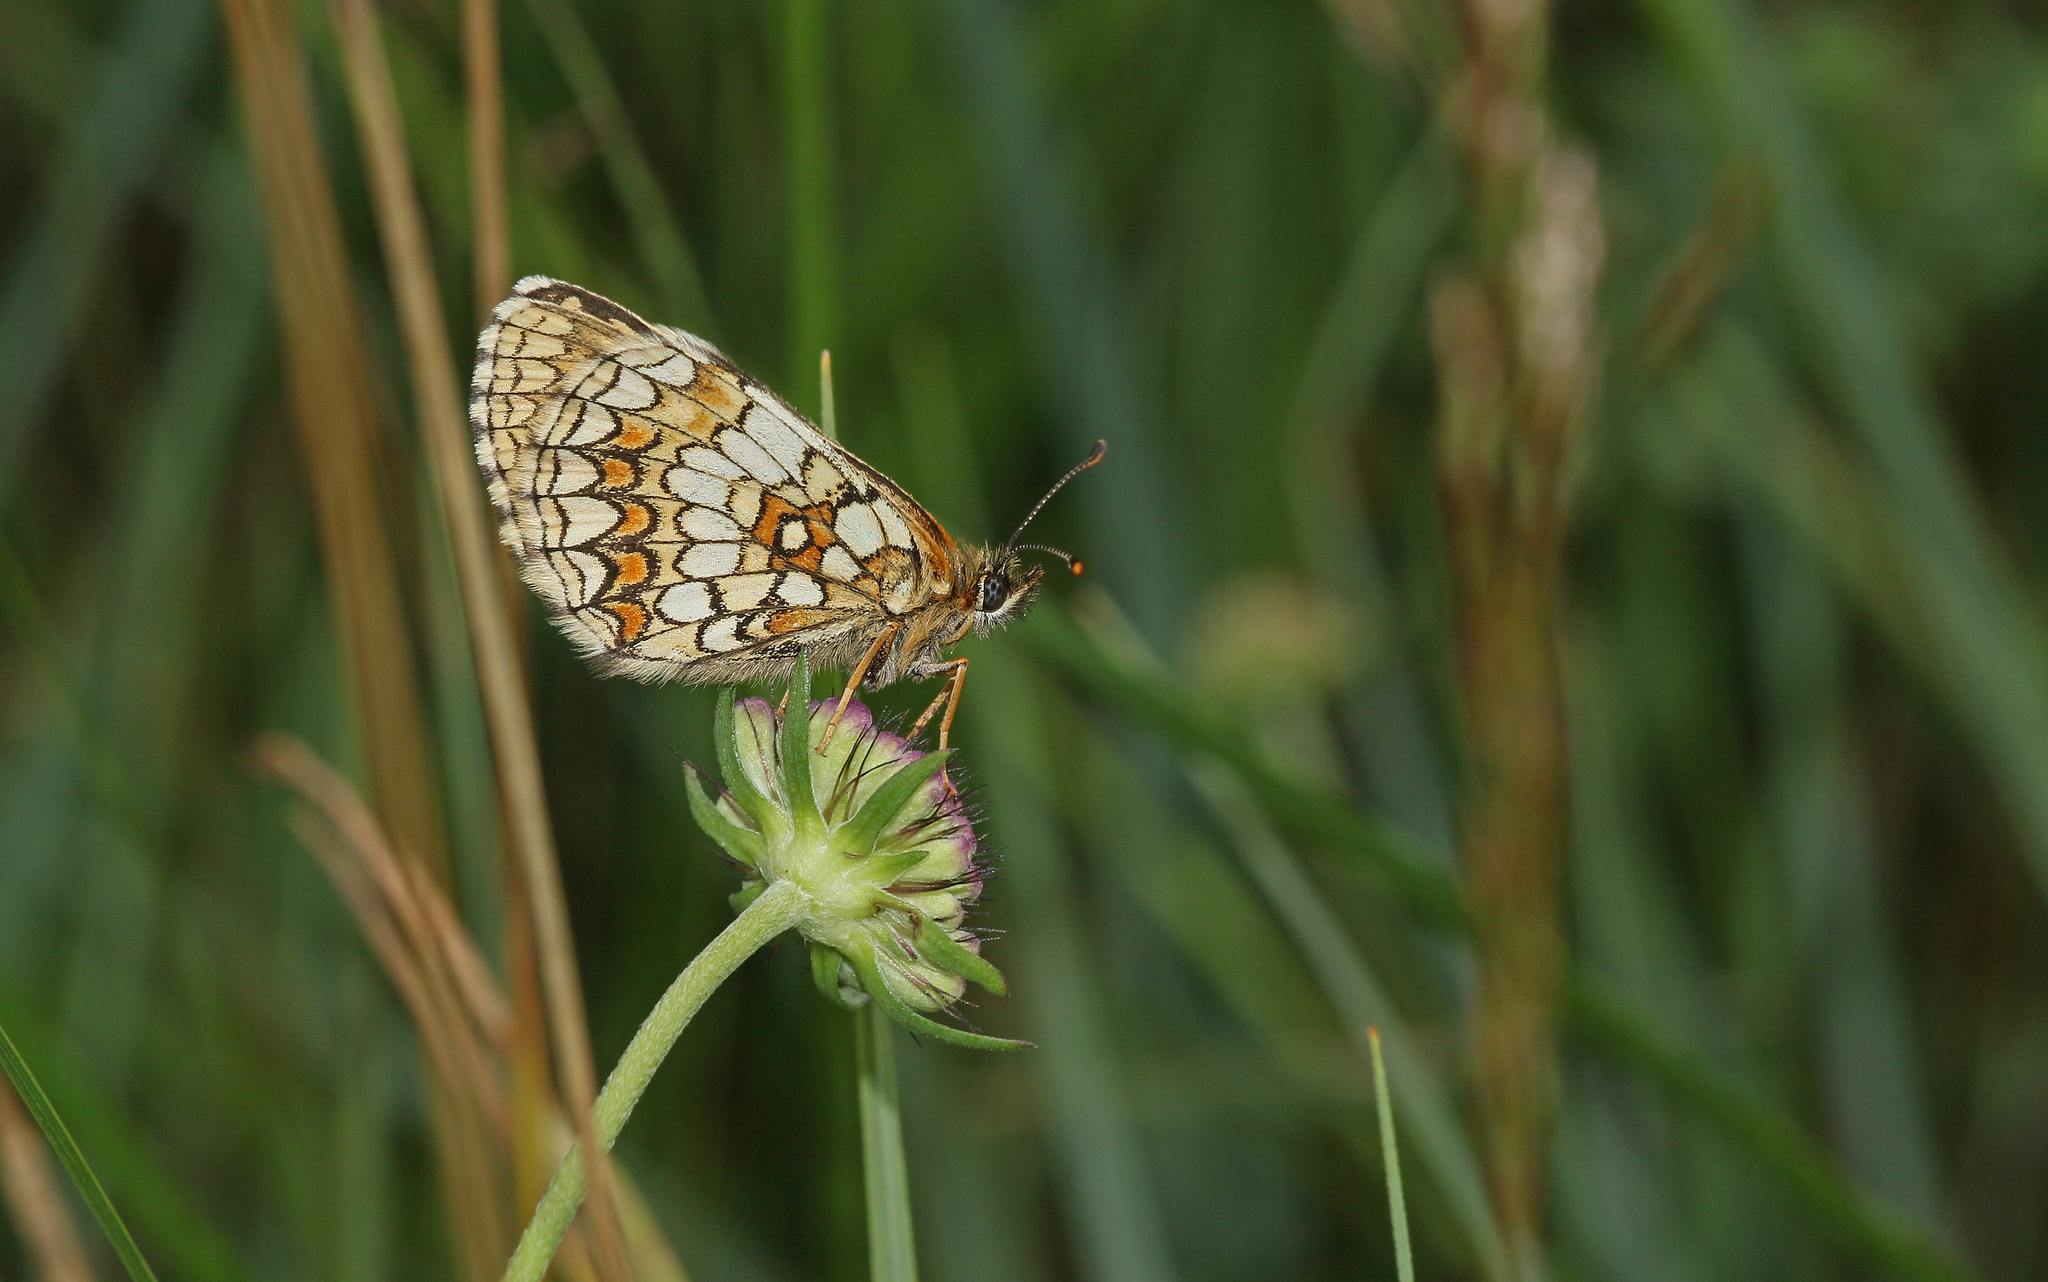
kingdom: Animalia
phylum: Arthropoda
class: Insecta
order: Lepidoptera
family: Nymphalidae
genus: Melitaea
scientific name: Melitaea athalia
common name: Heath fritillary
